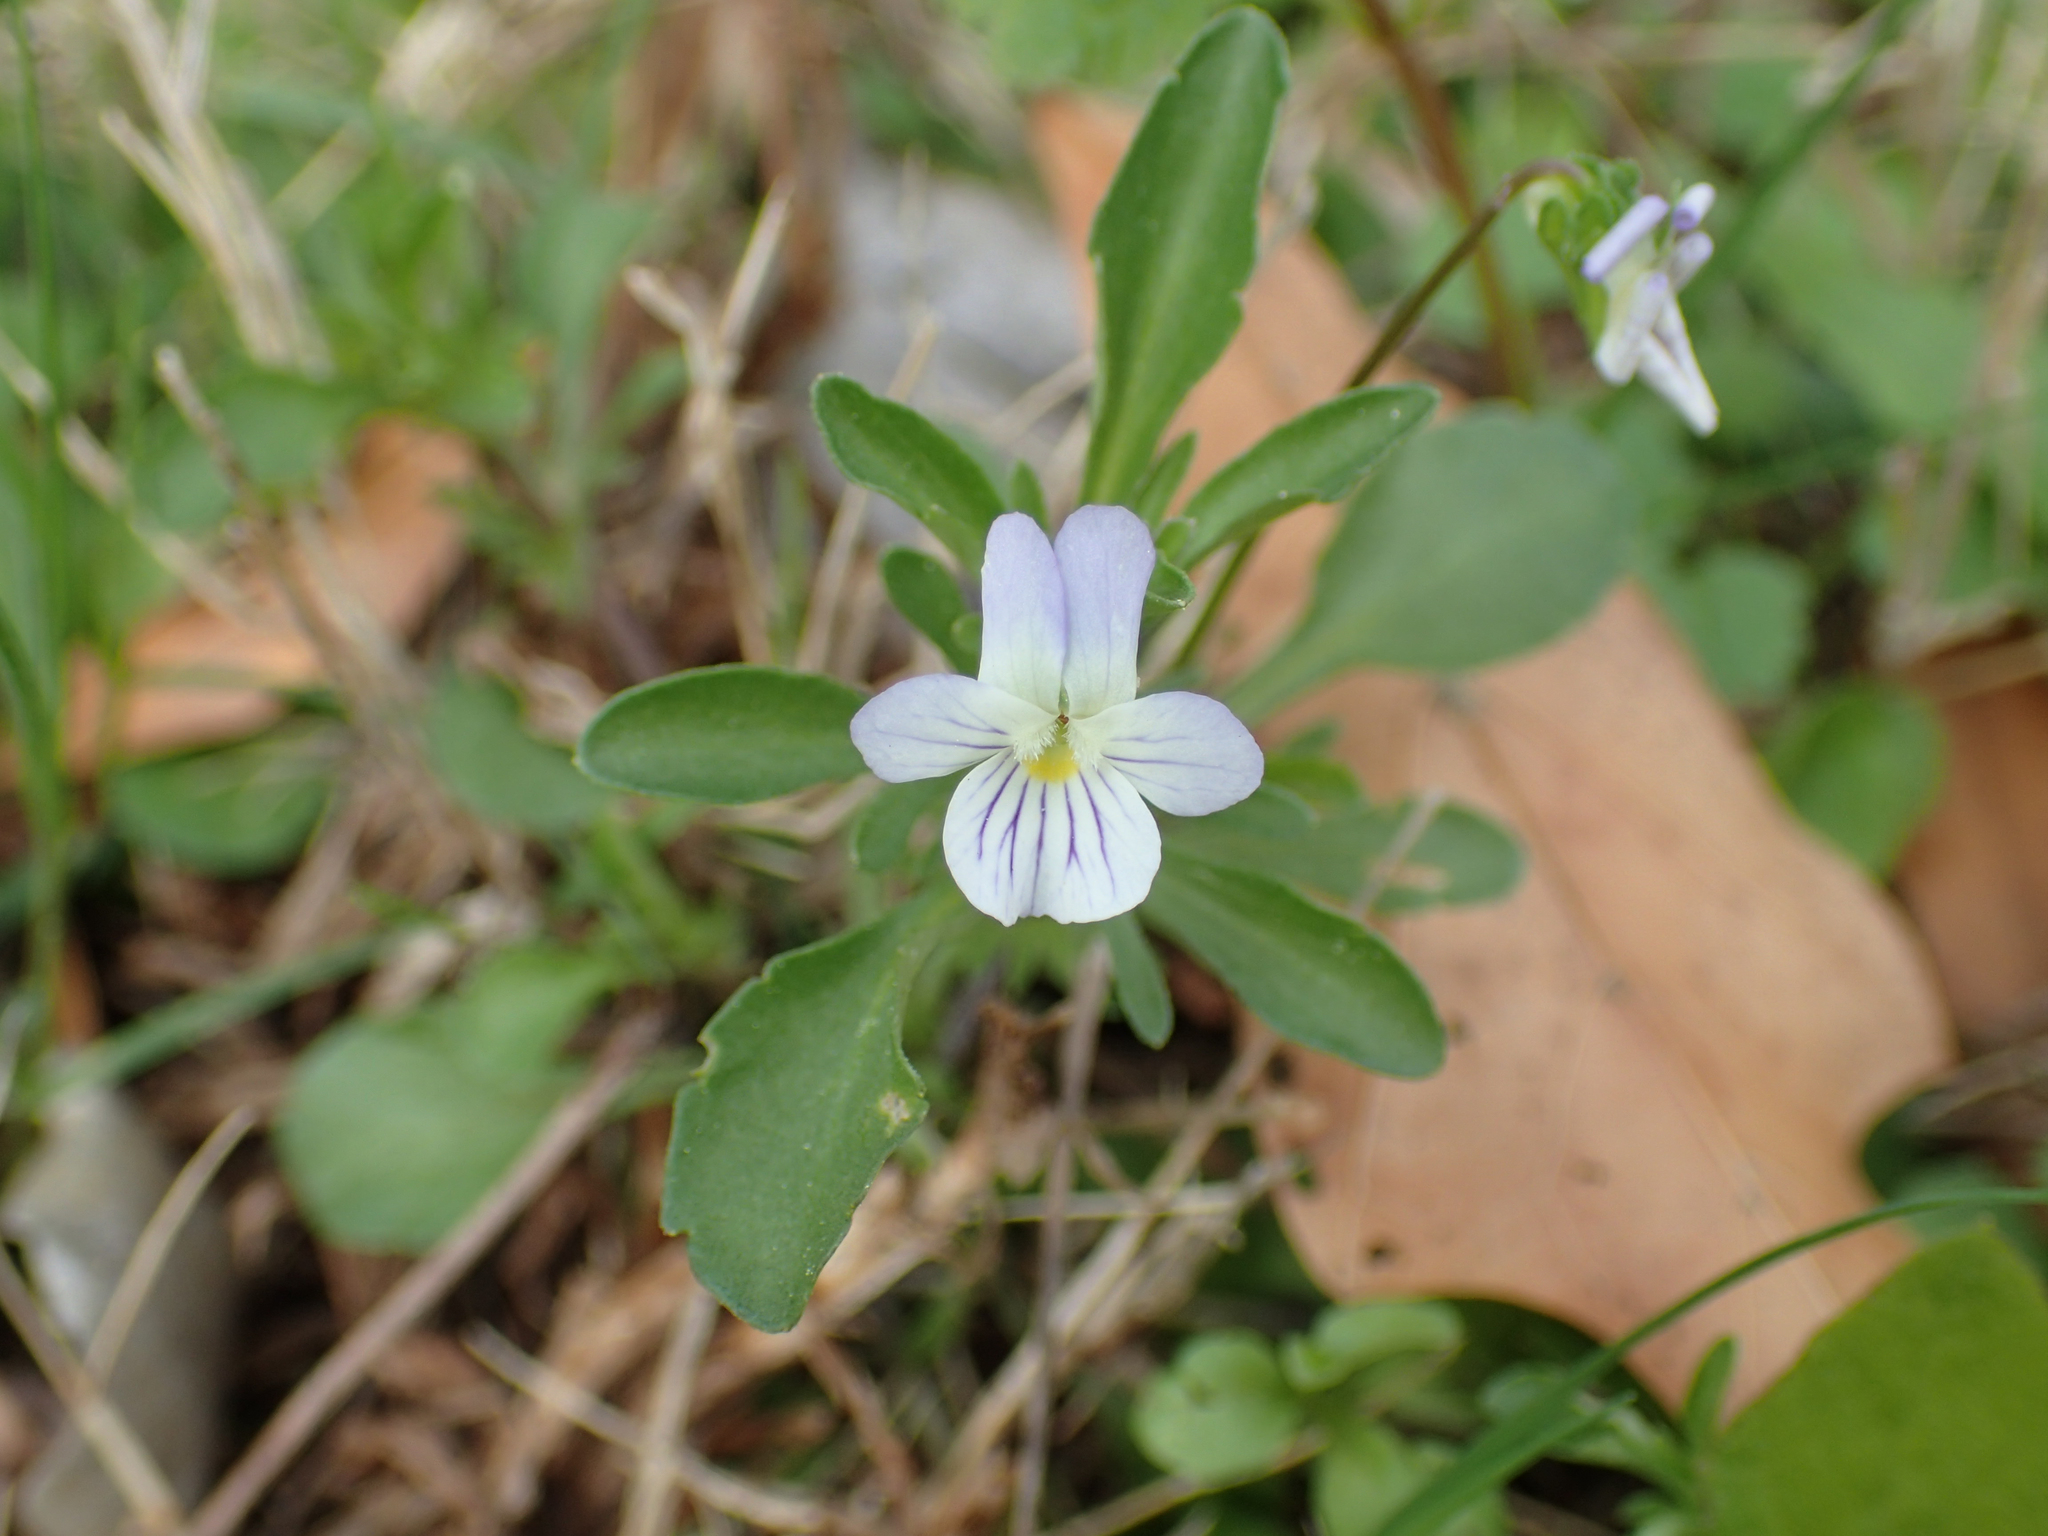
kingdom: Plantae
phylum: Tracheophyta
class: Magnoliopsida
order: Malpighiales
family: Violaceae
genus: Viola
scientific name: Viola rafinesquei
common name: American field pansy
